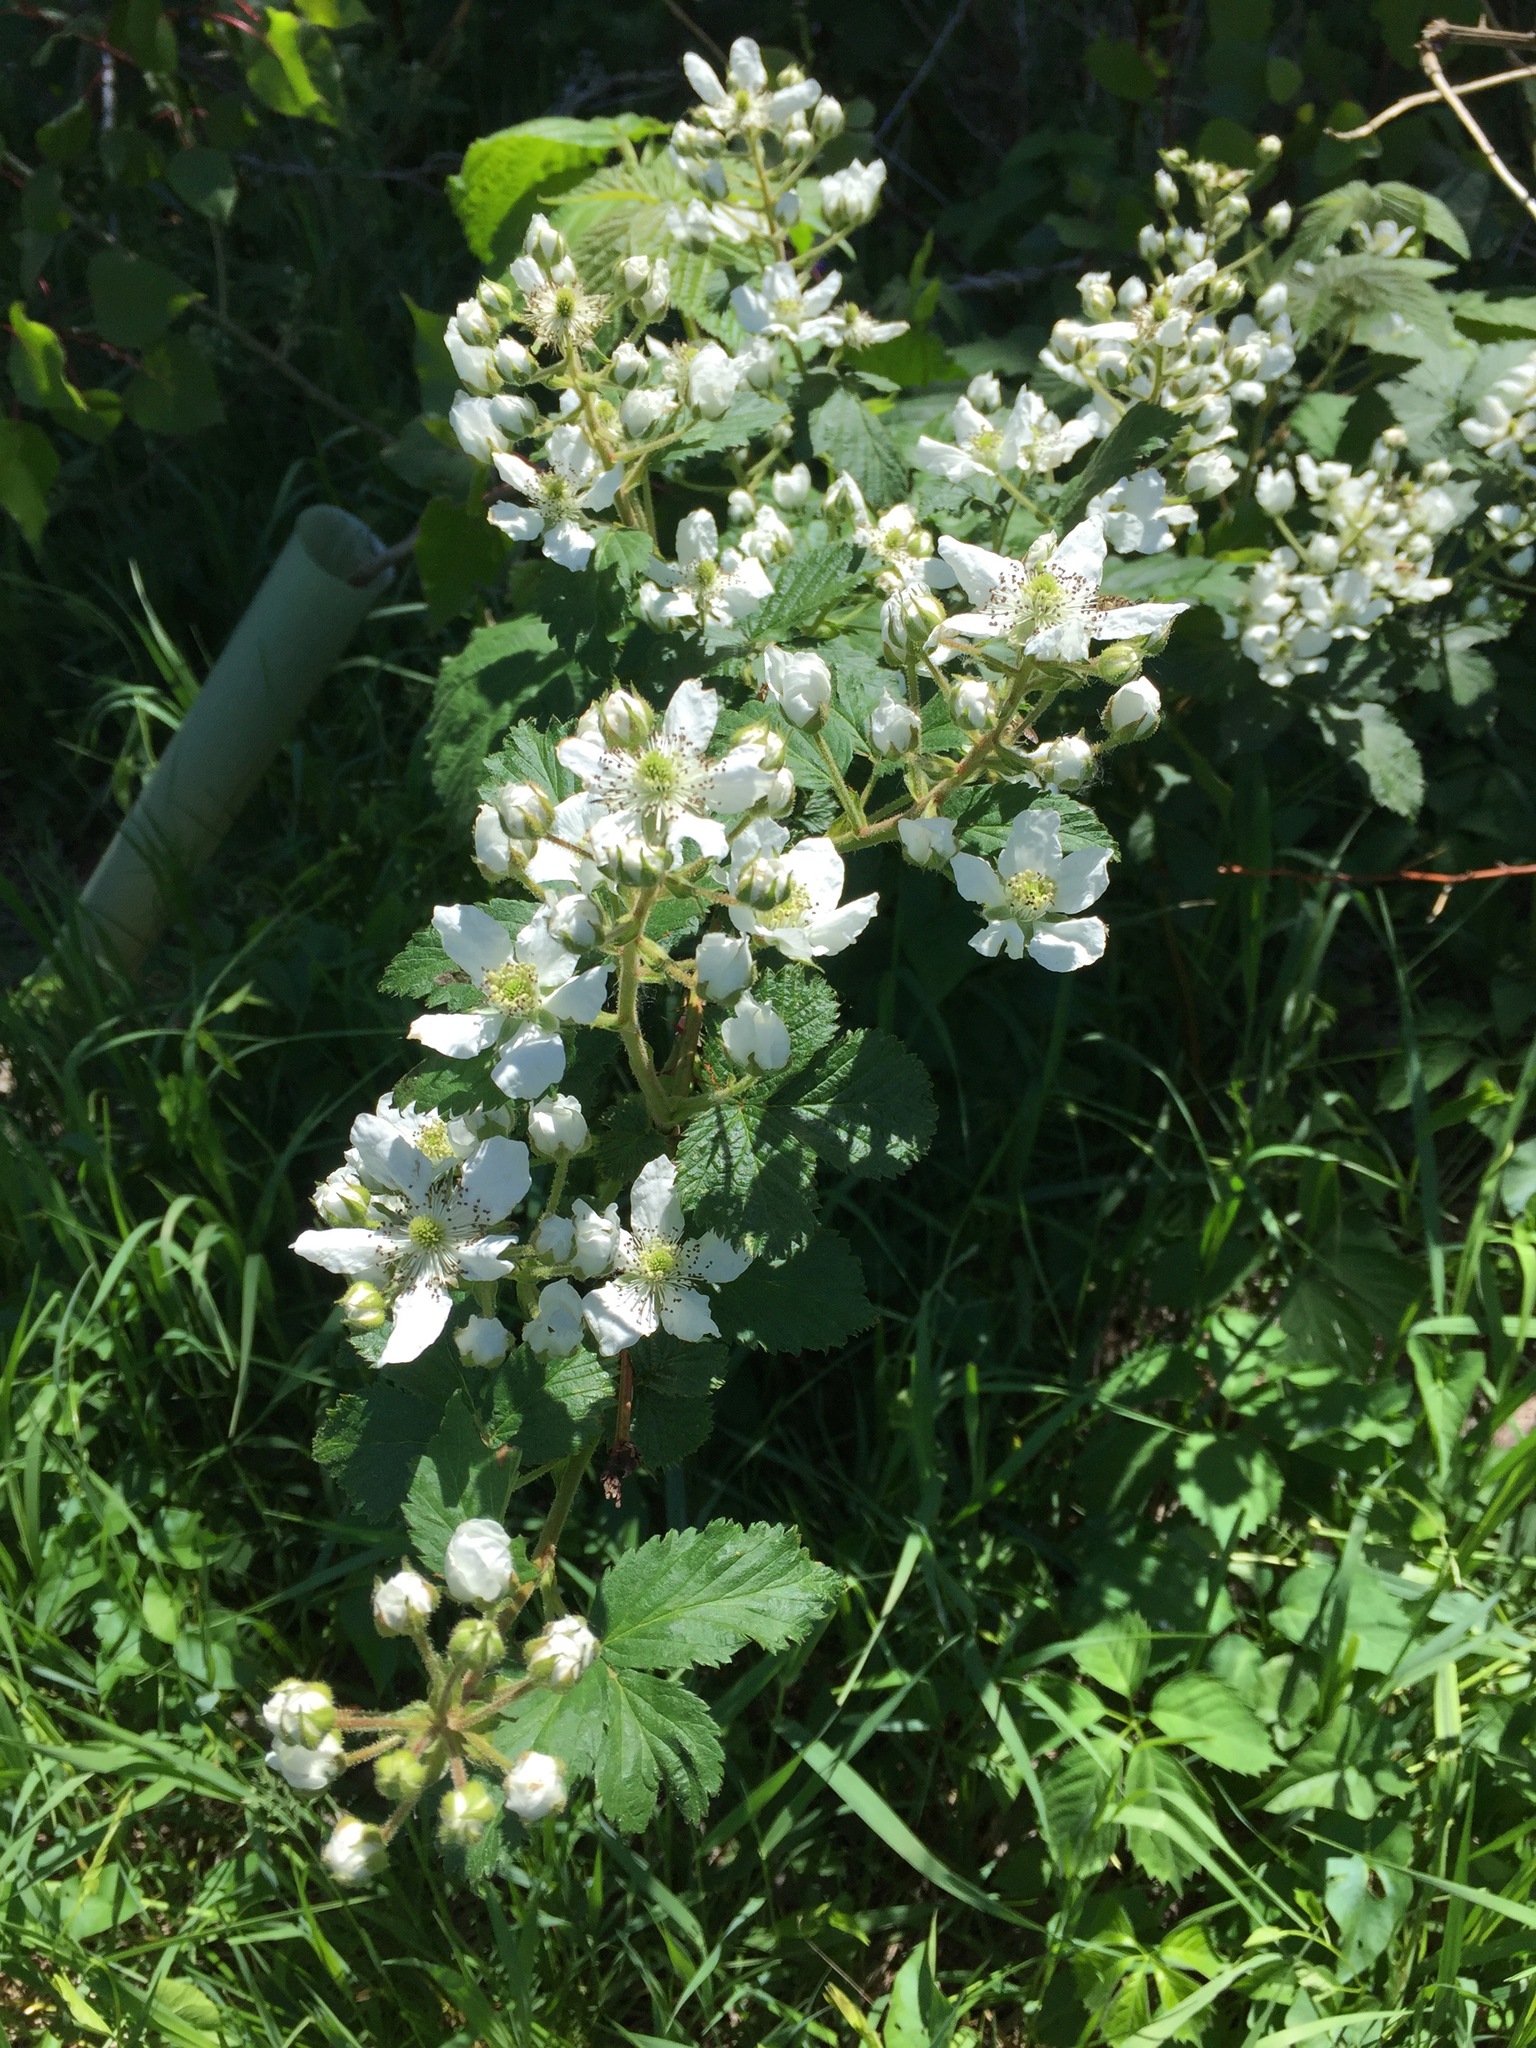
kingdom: Plantae
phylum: Tracheophyta
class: Magnoliopsida
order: Rosales
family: Rosaceae
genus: Rubus
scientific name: Rubus allegheniensis
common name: Allegheny blackberry
